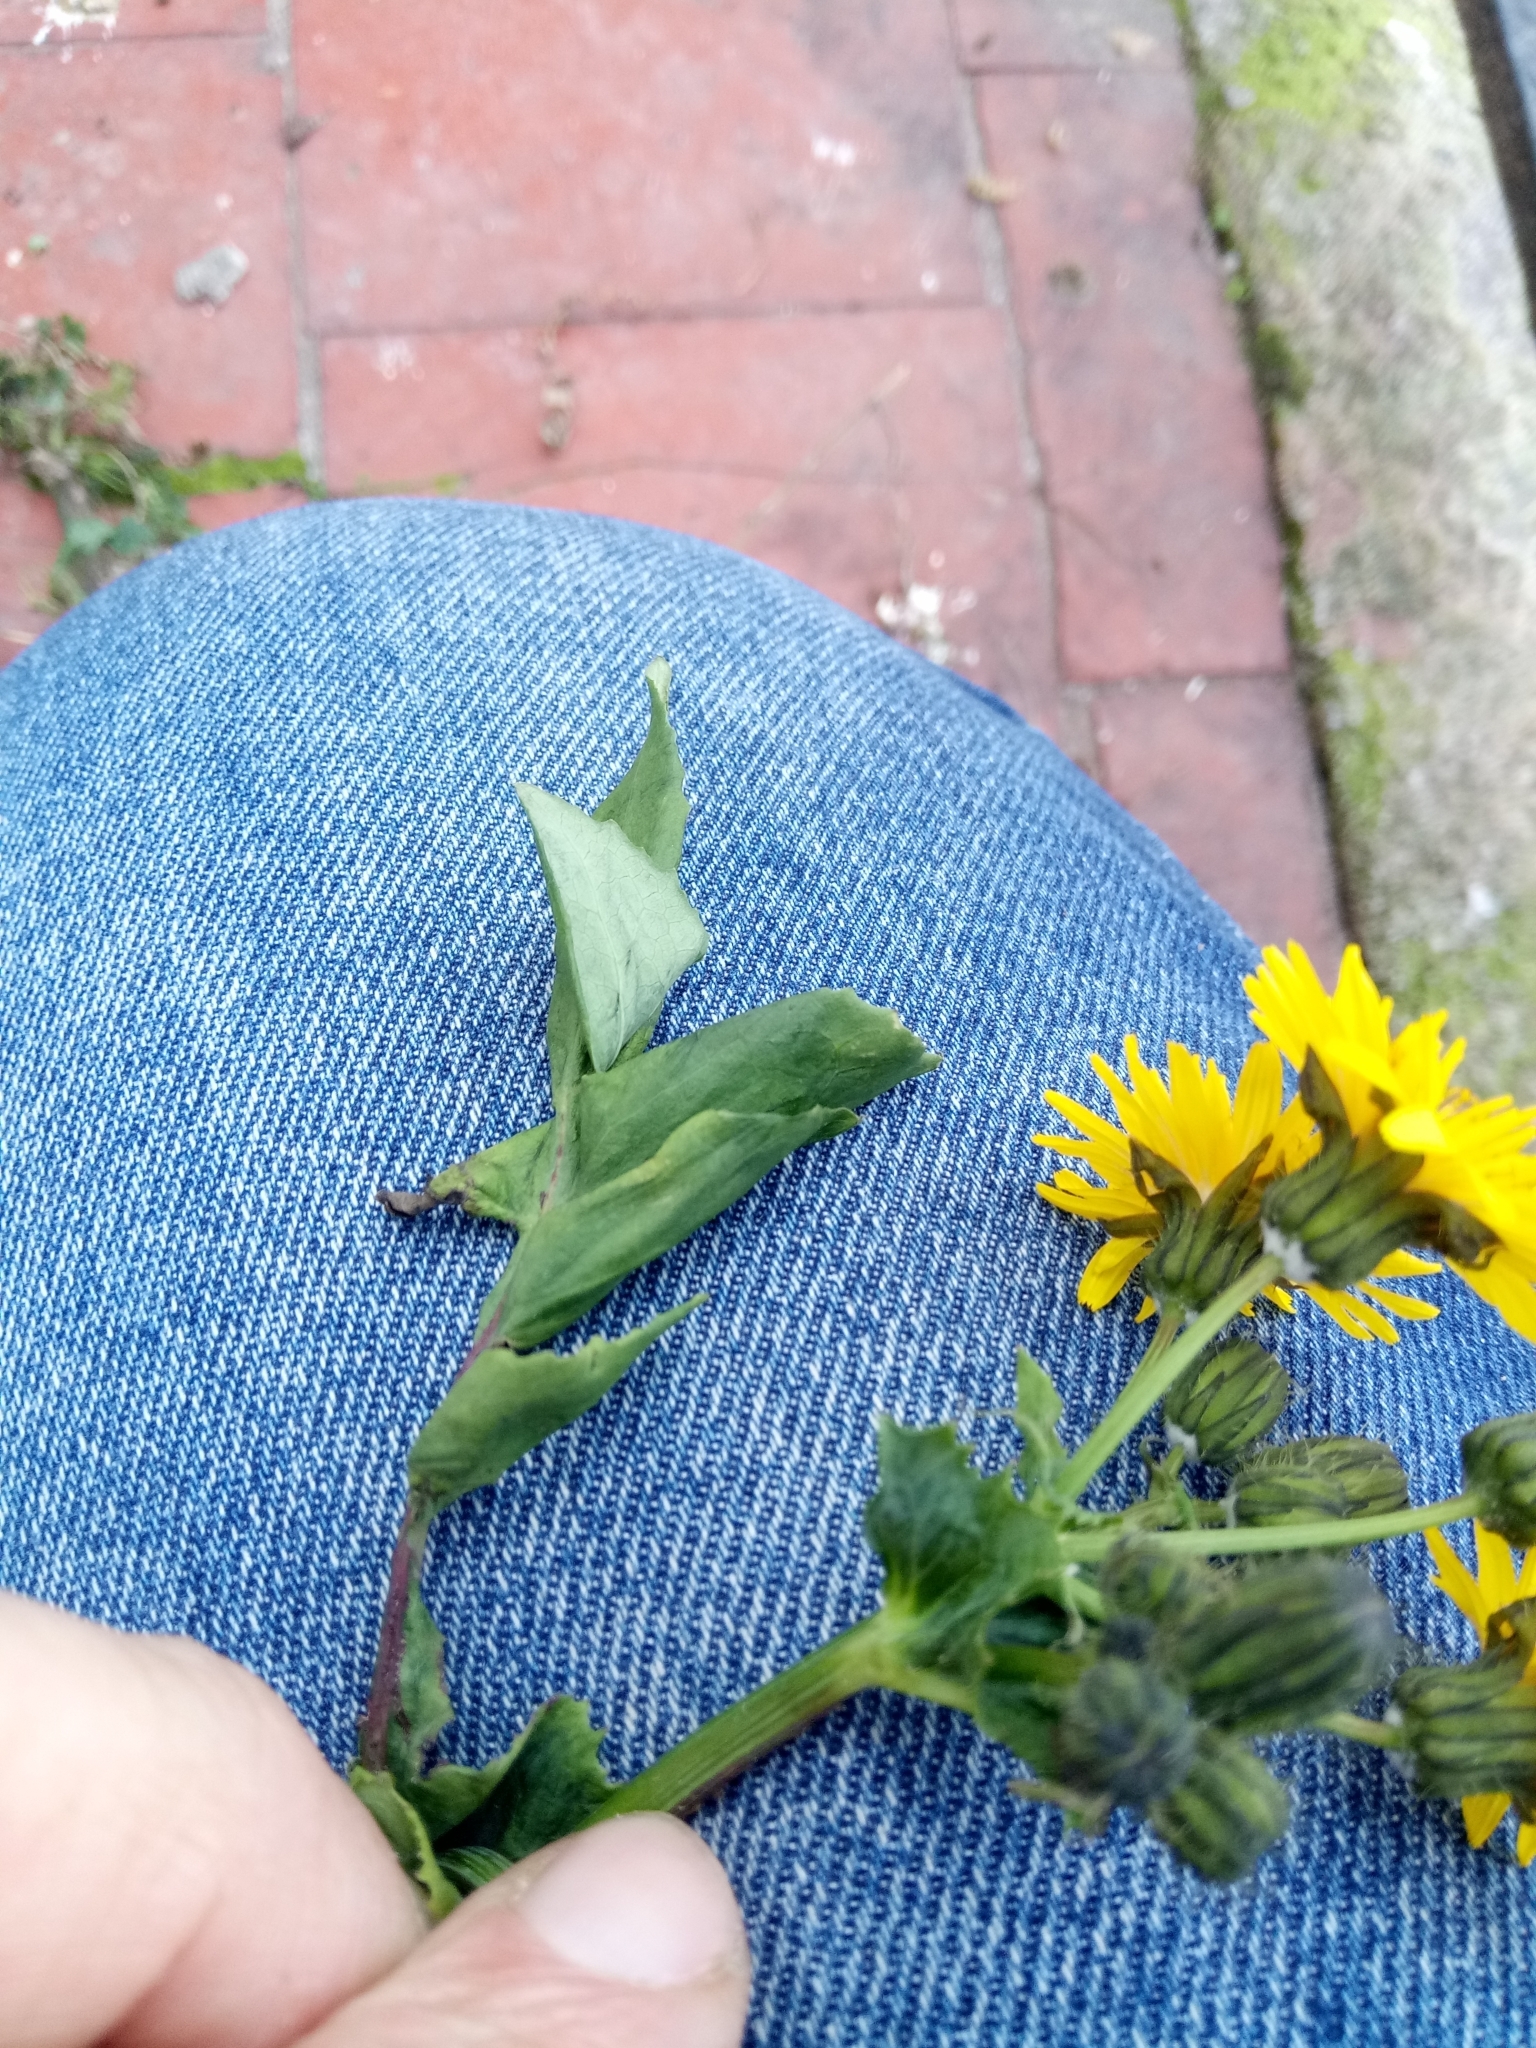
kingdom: Plantae
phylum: Tracheophyta
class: Magnoliopsida
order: Asterales
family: Asteraceae
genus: Sonchus
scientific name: Sonchus tenerrimus
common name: Clammy sowthistle
